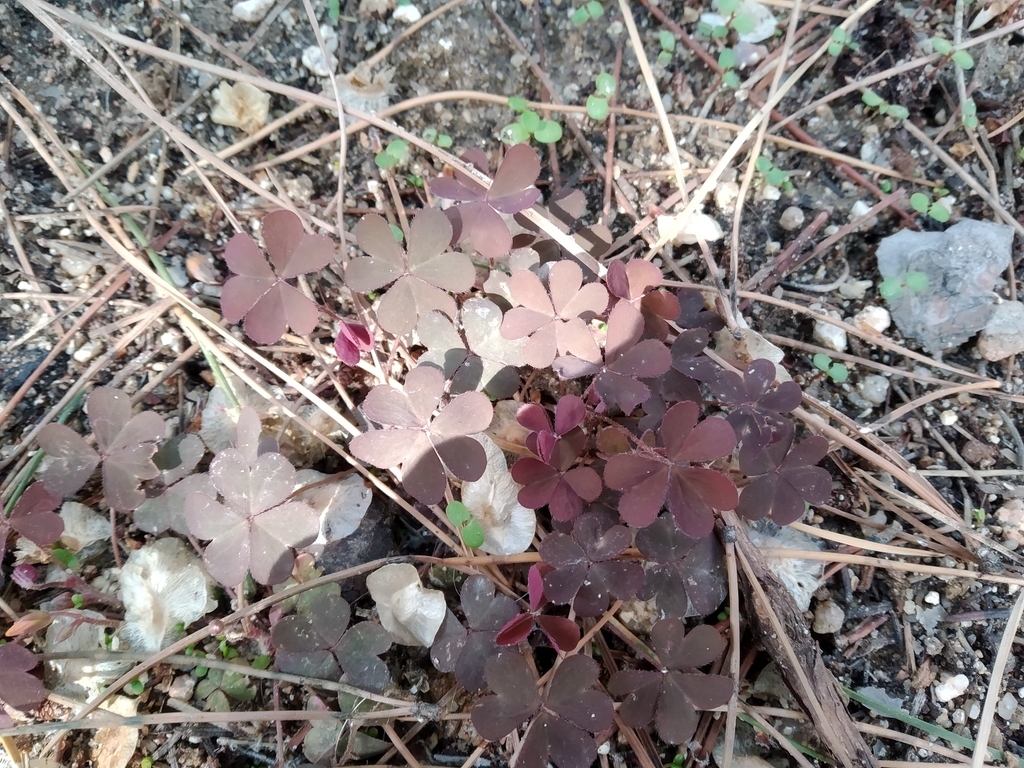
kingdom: Plantae
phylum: Tracheophyta
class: Magnoliopsida
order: Oxalidales
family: Oxalidaceae
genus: Oxalis
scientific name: Oxalis corniculata
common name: Procumbent yellow-sorrel
